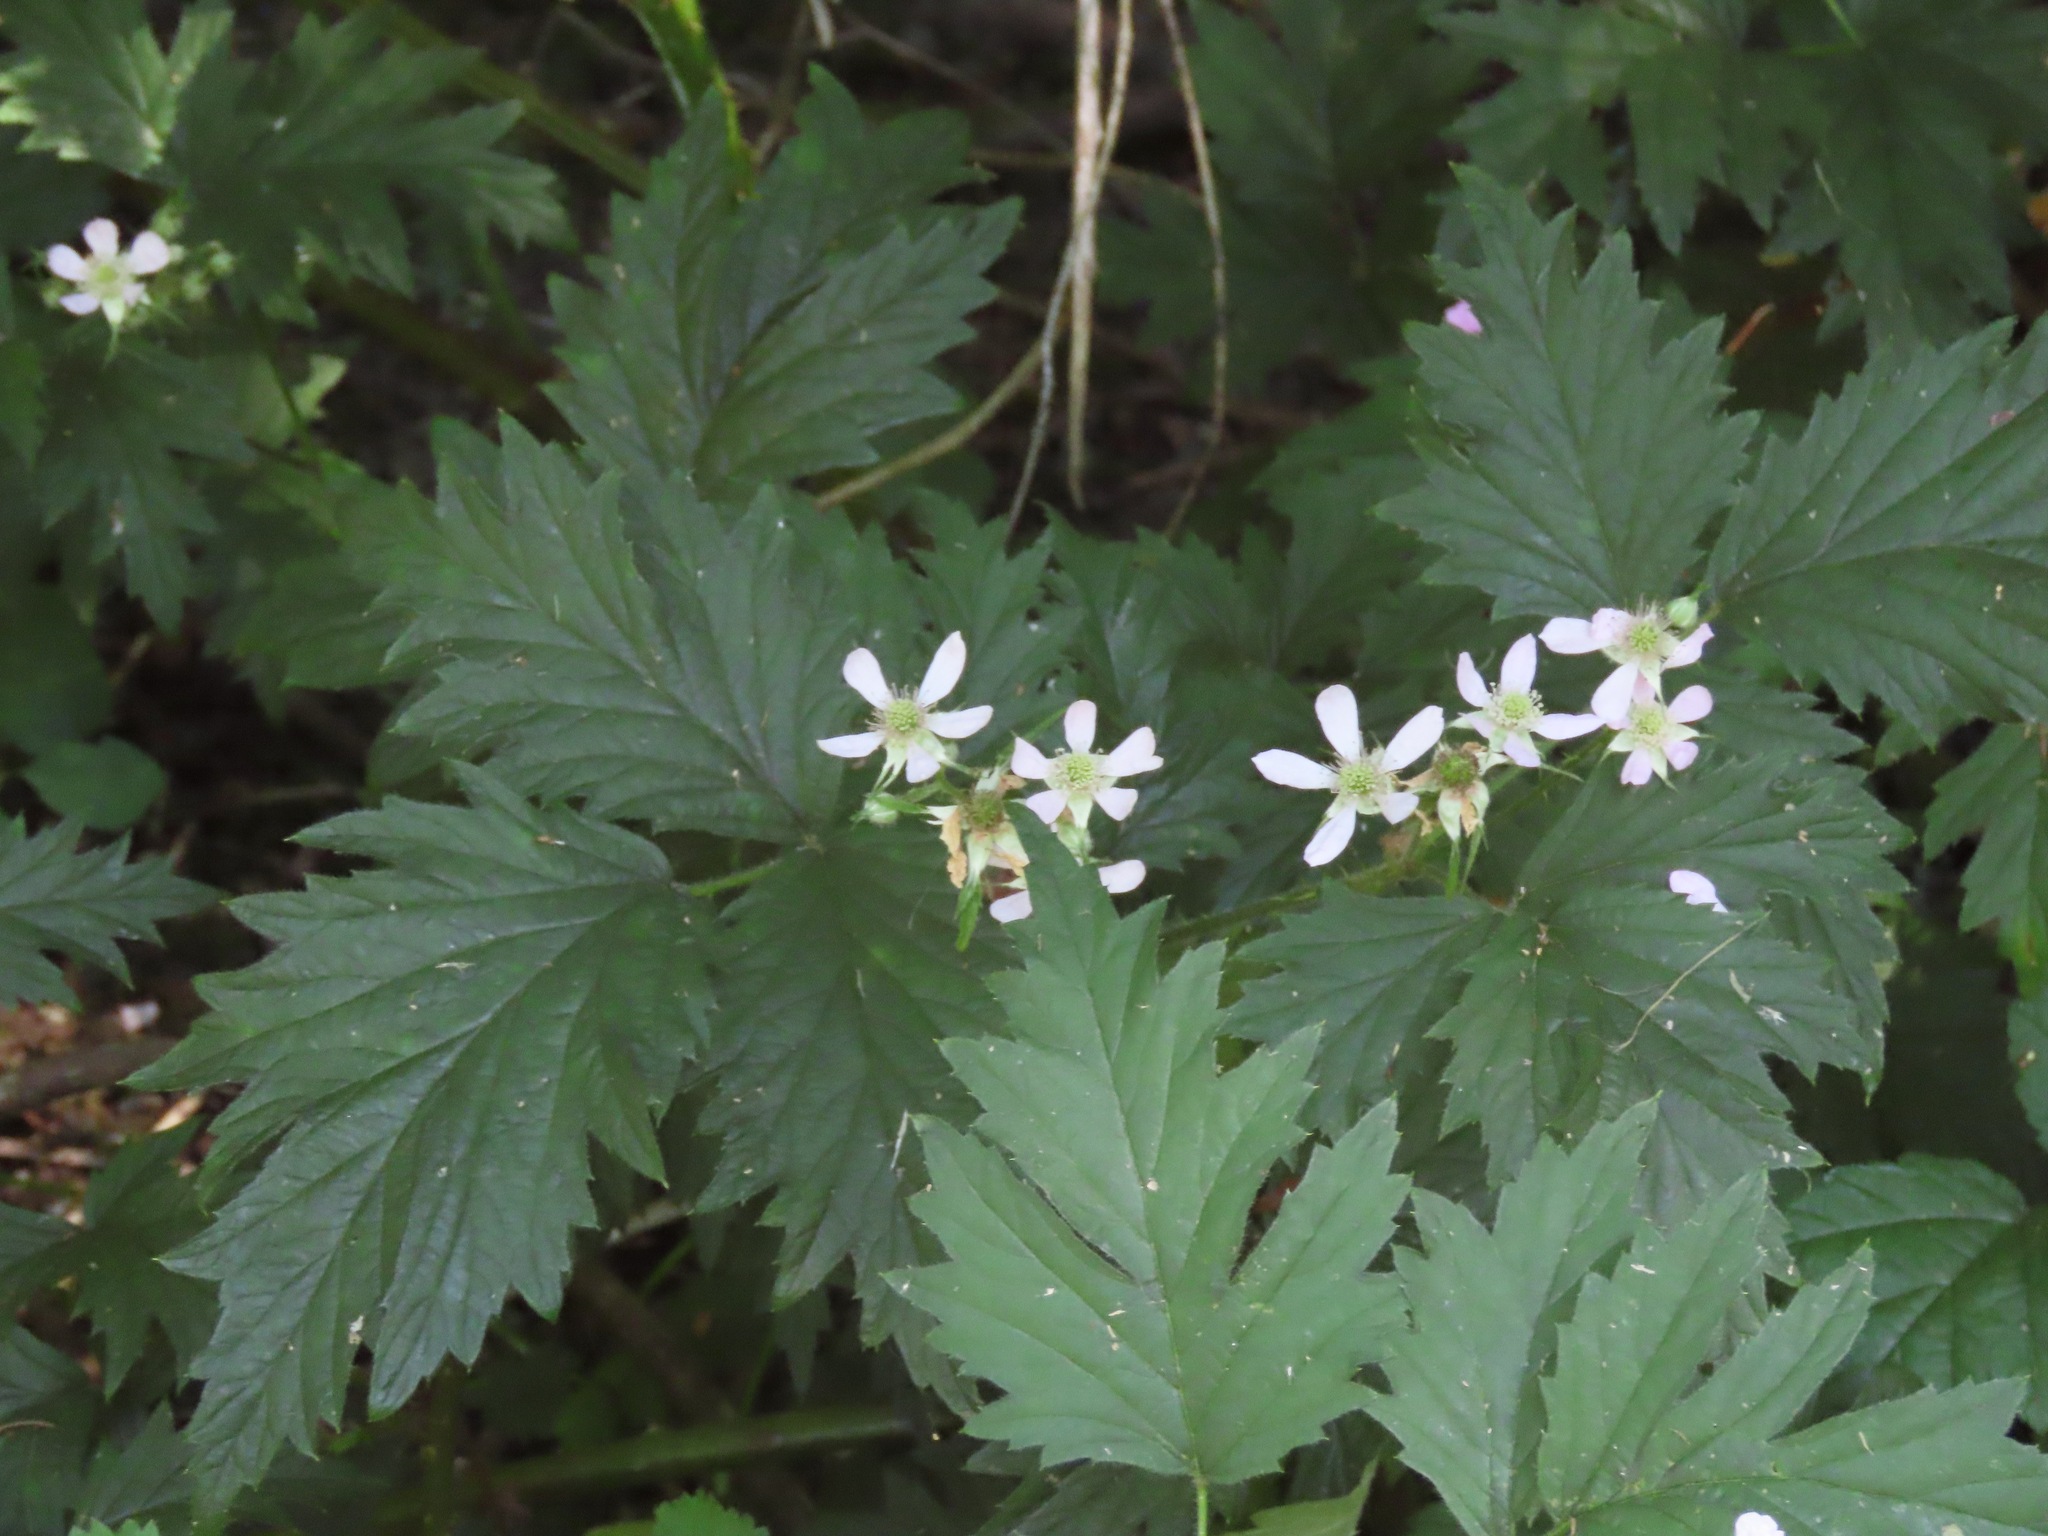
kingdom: Plantae
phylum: Tracheophyta
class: Magnoliopsida
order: Rosales
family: Rosaceae
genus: Rubus
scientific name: Rubus laciniatus
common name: Evergreen blackberry
